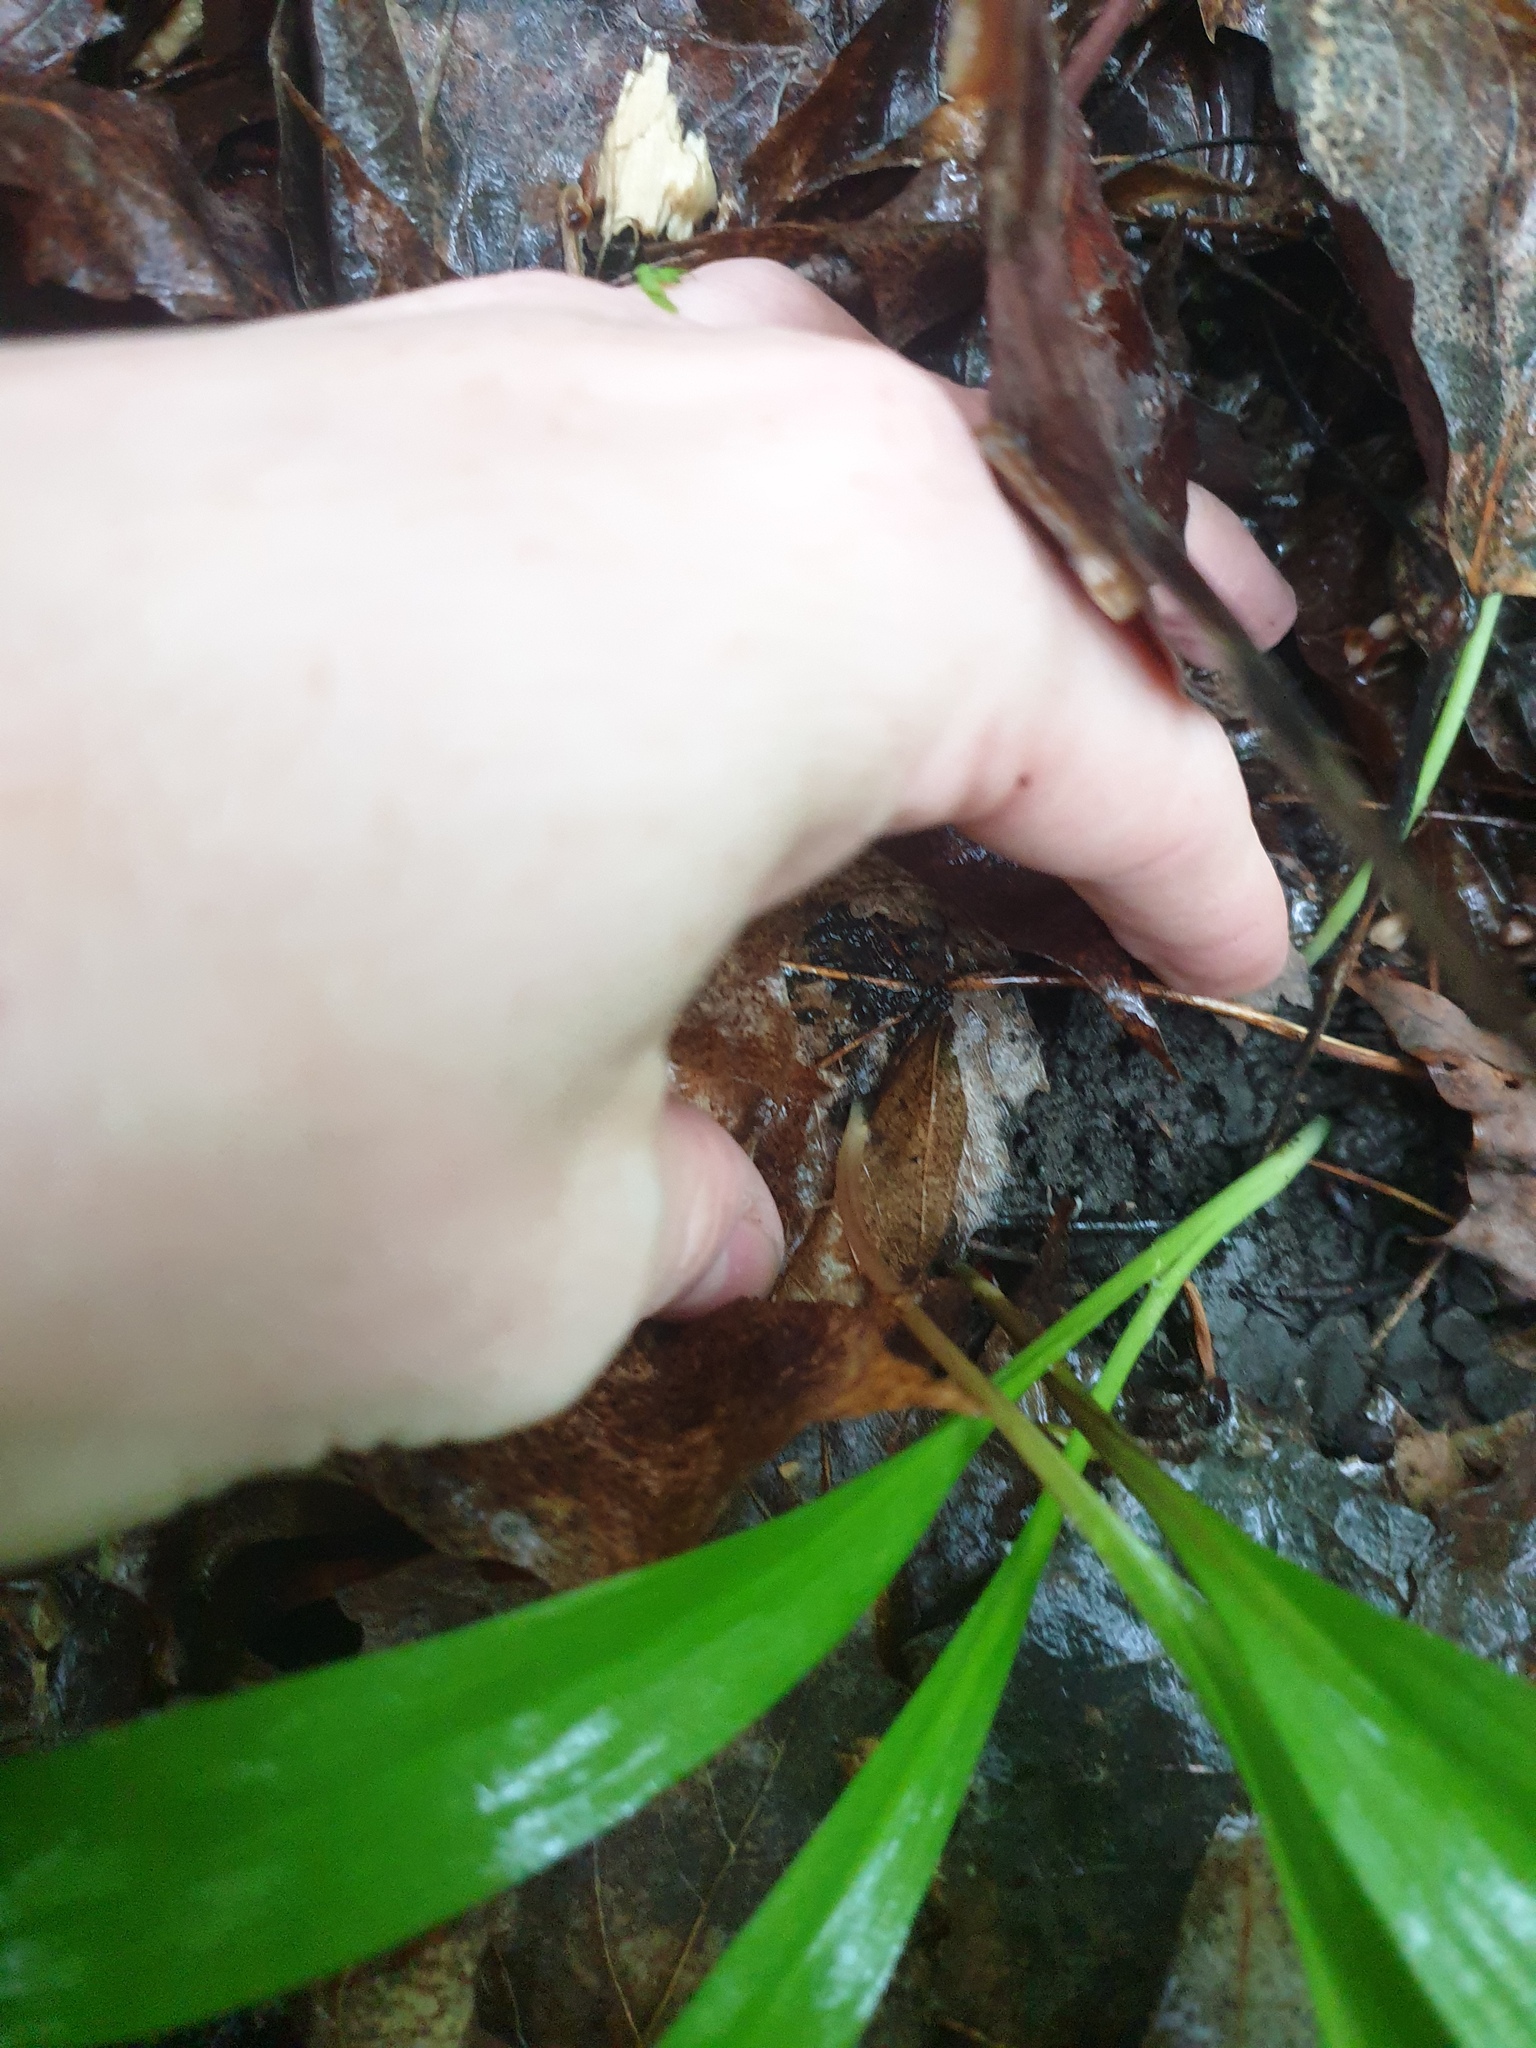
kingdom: Plantae
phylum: Tracheophyta
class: Liliopsida
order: Asparagales
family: Amaryllidaceae
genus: Allium
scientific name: Allium tricoccum
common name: Ramp
